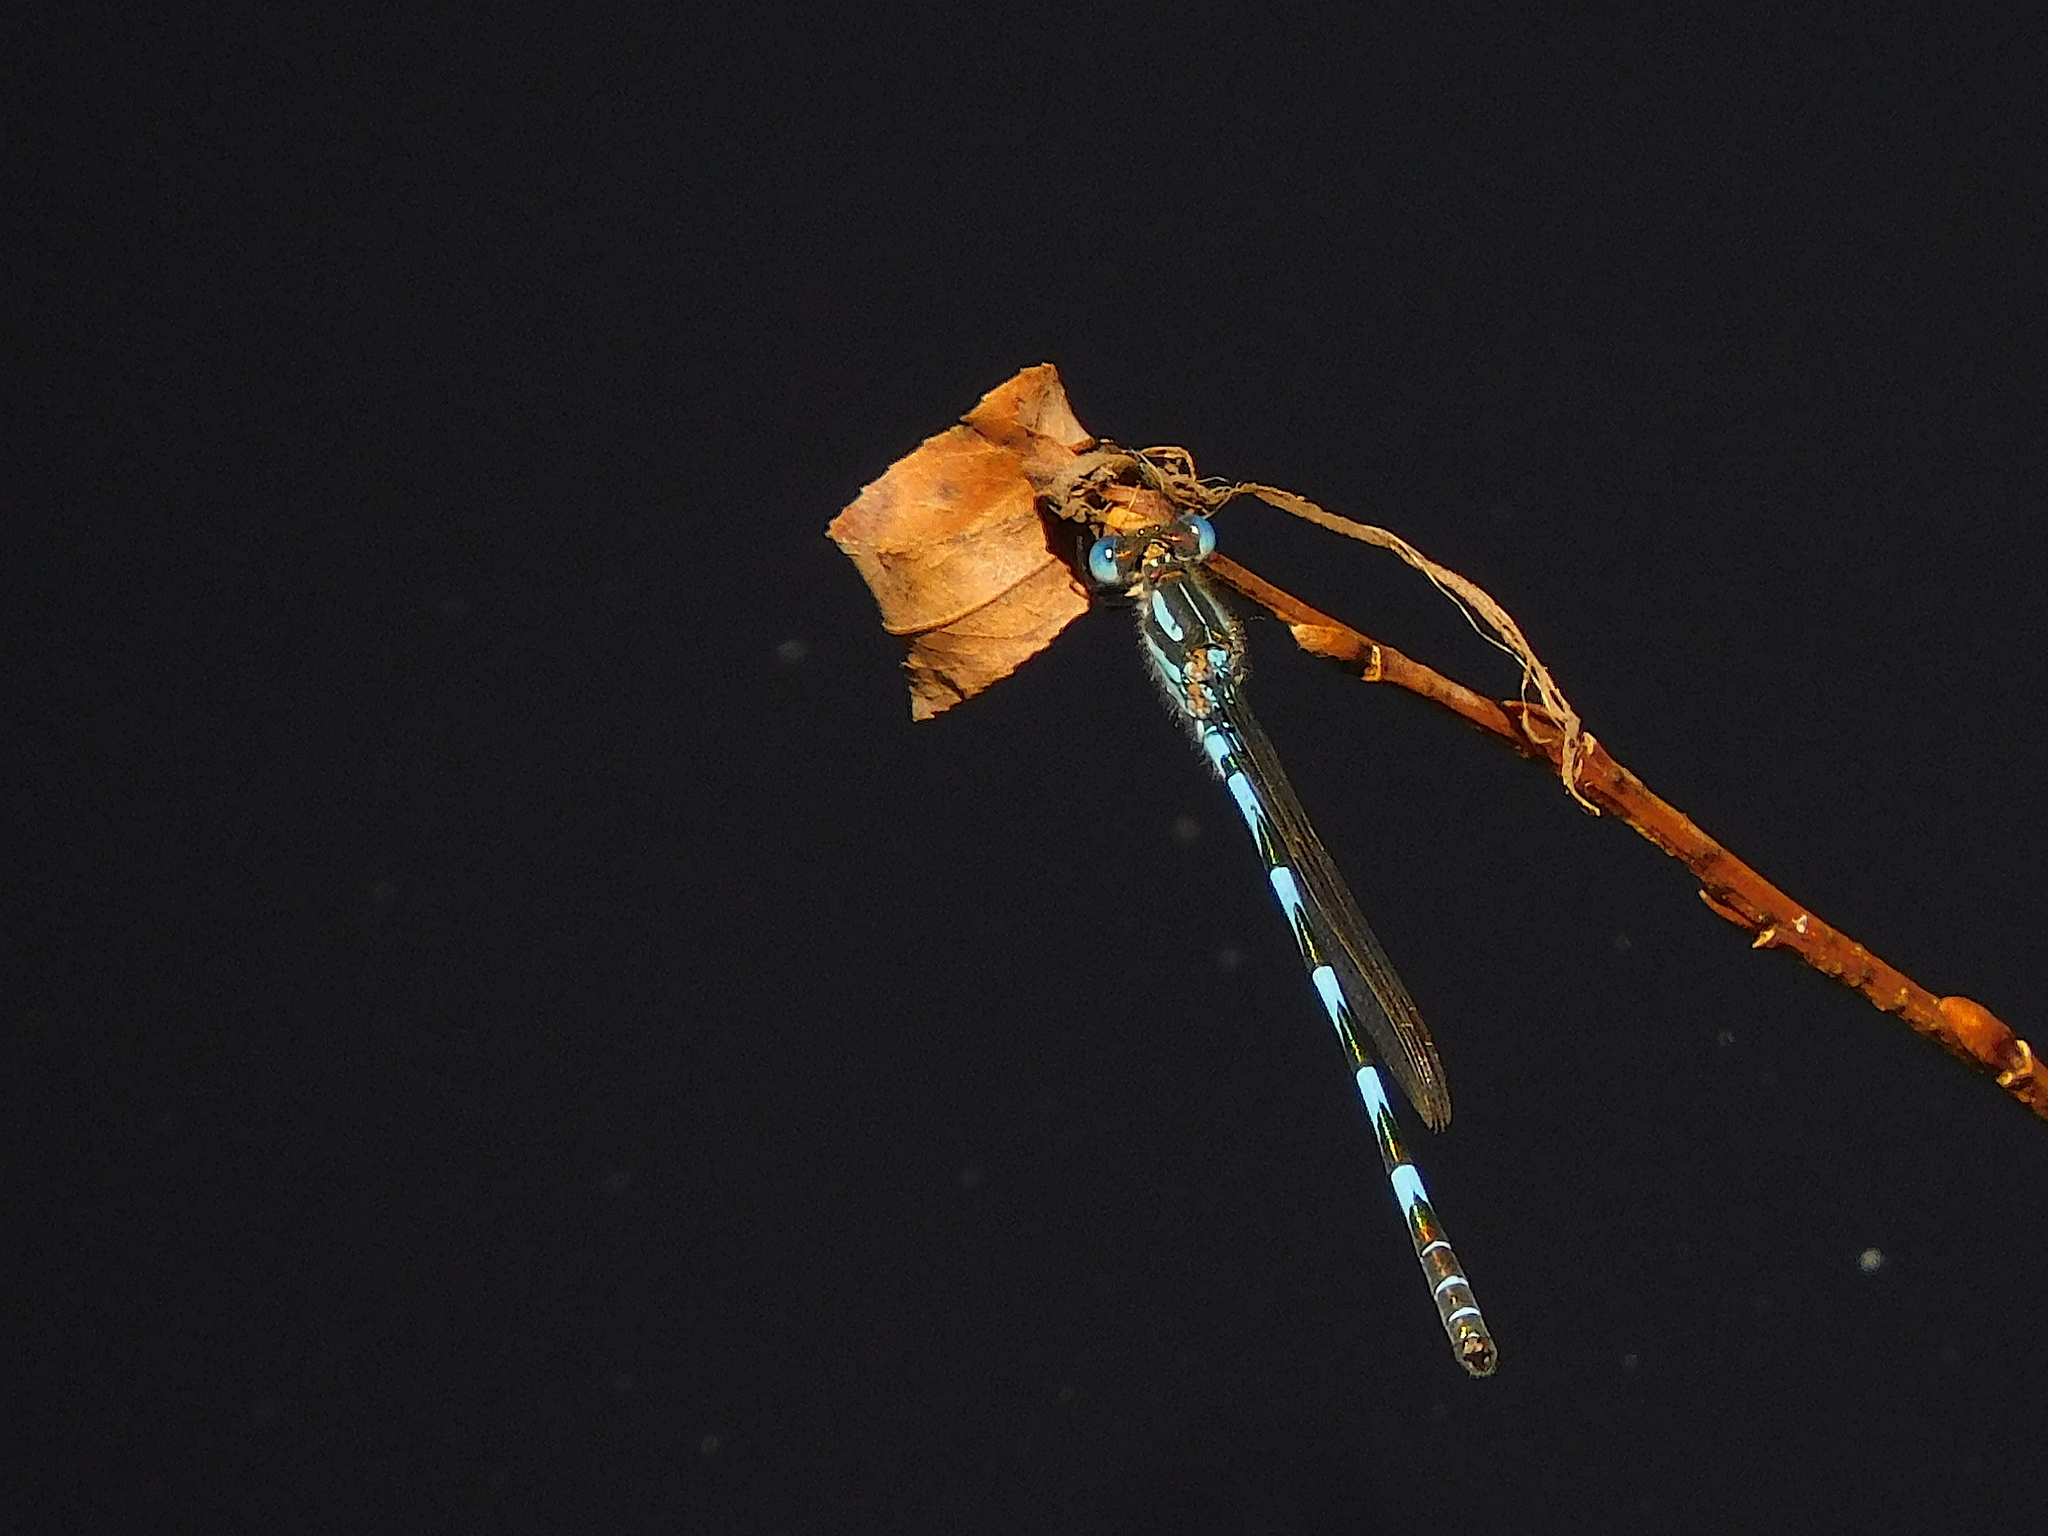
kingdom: Animalia
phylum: Arthropoda
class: Insecta
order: Odonata
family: Lestidae
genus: Austrolestes
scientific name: Austrolestes annulosus
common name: Blue ringtail
